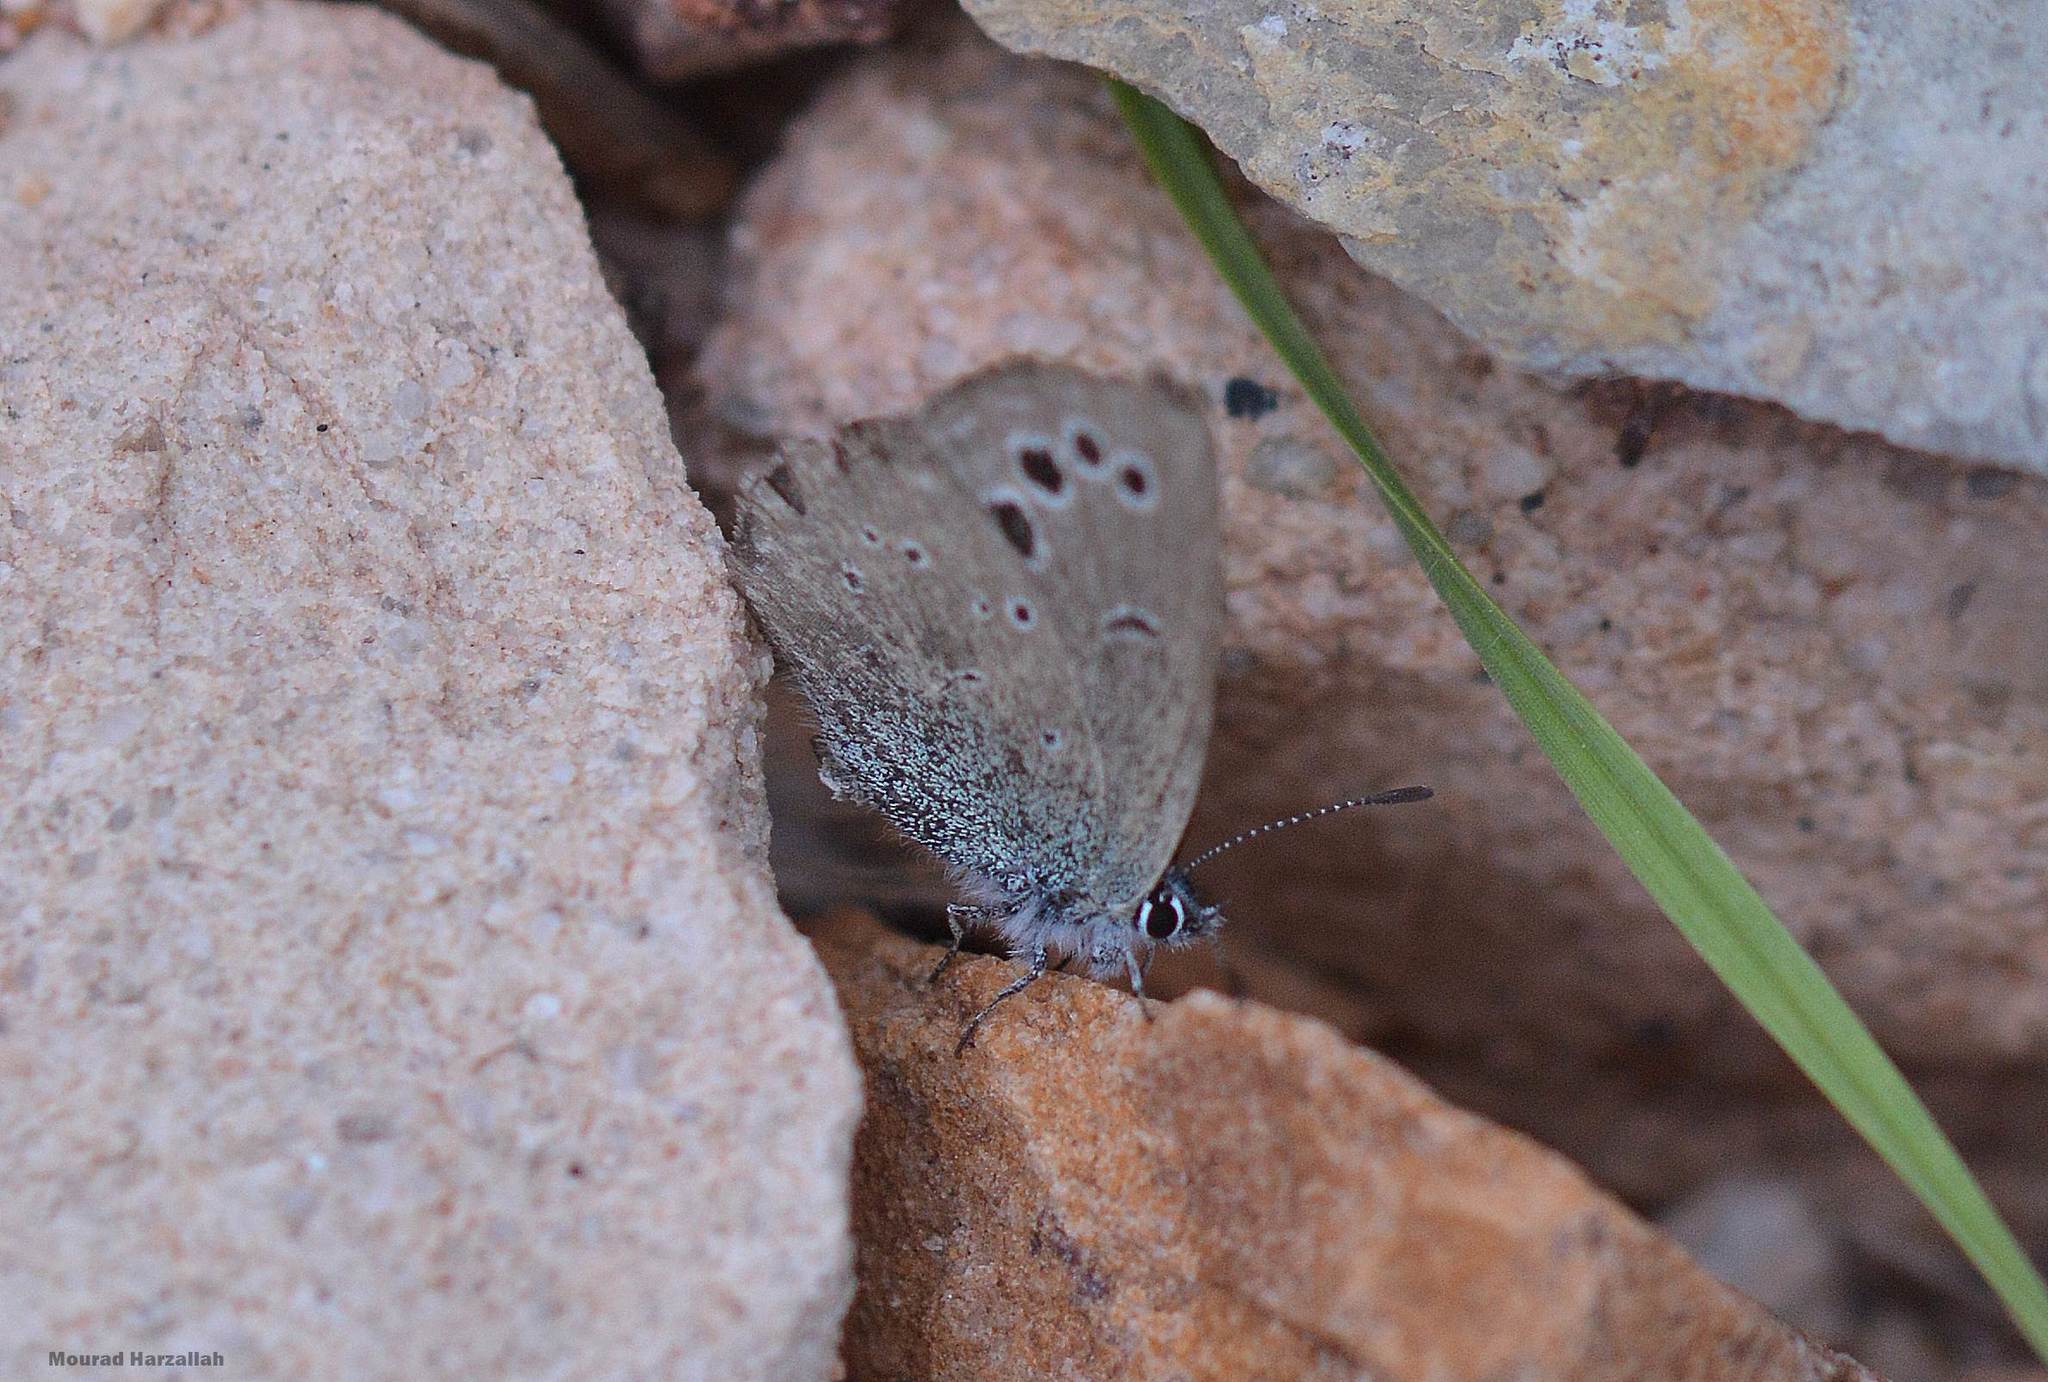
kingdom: Animalia
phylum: Arthropoda
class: Insecta
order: Lepidoptera
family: Lycaenidae
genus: Glaucopsyche
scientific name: Glaucopsyche melanops
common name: Black-eyed blue
